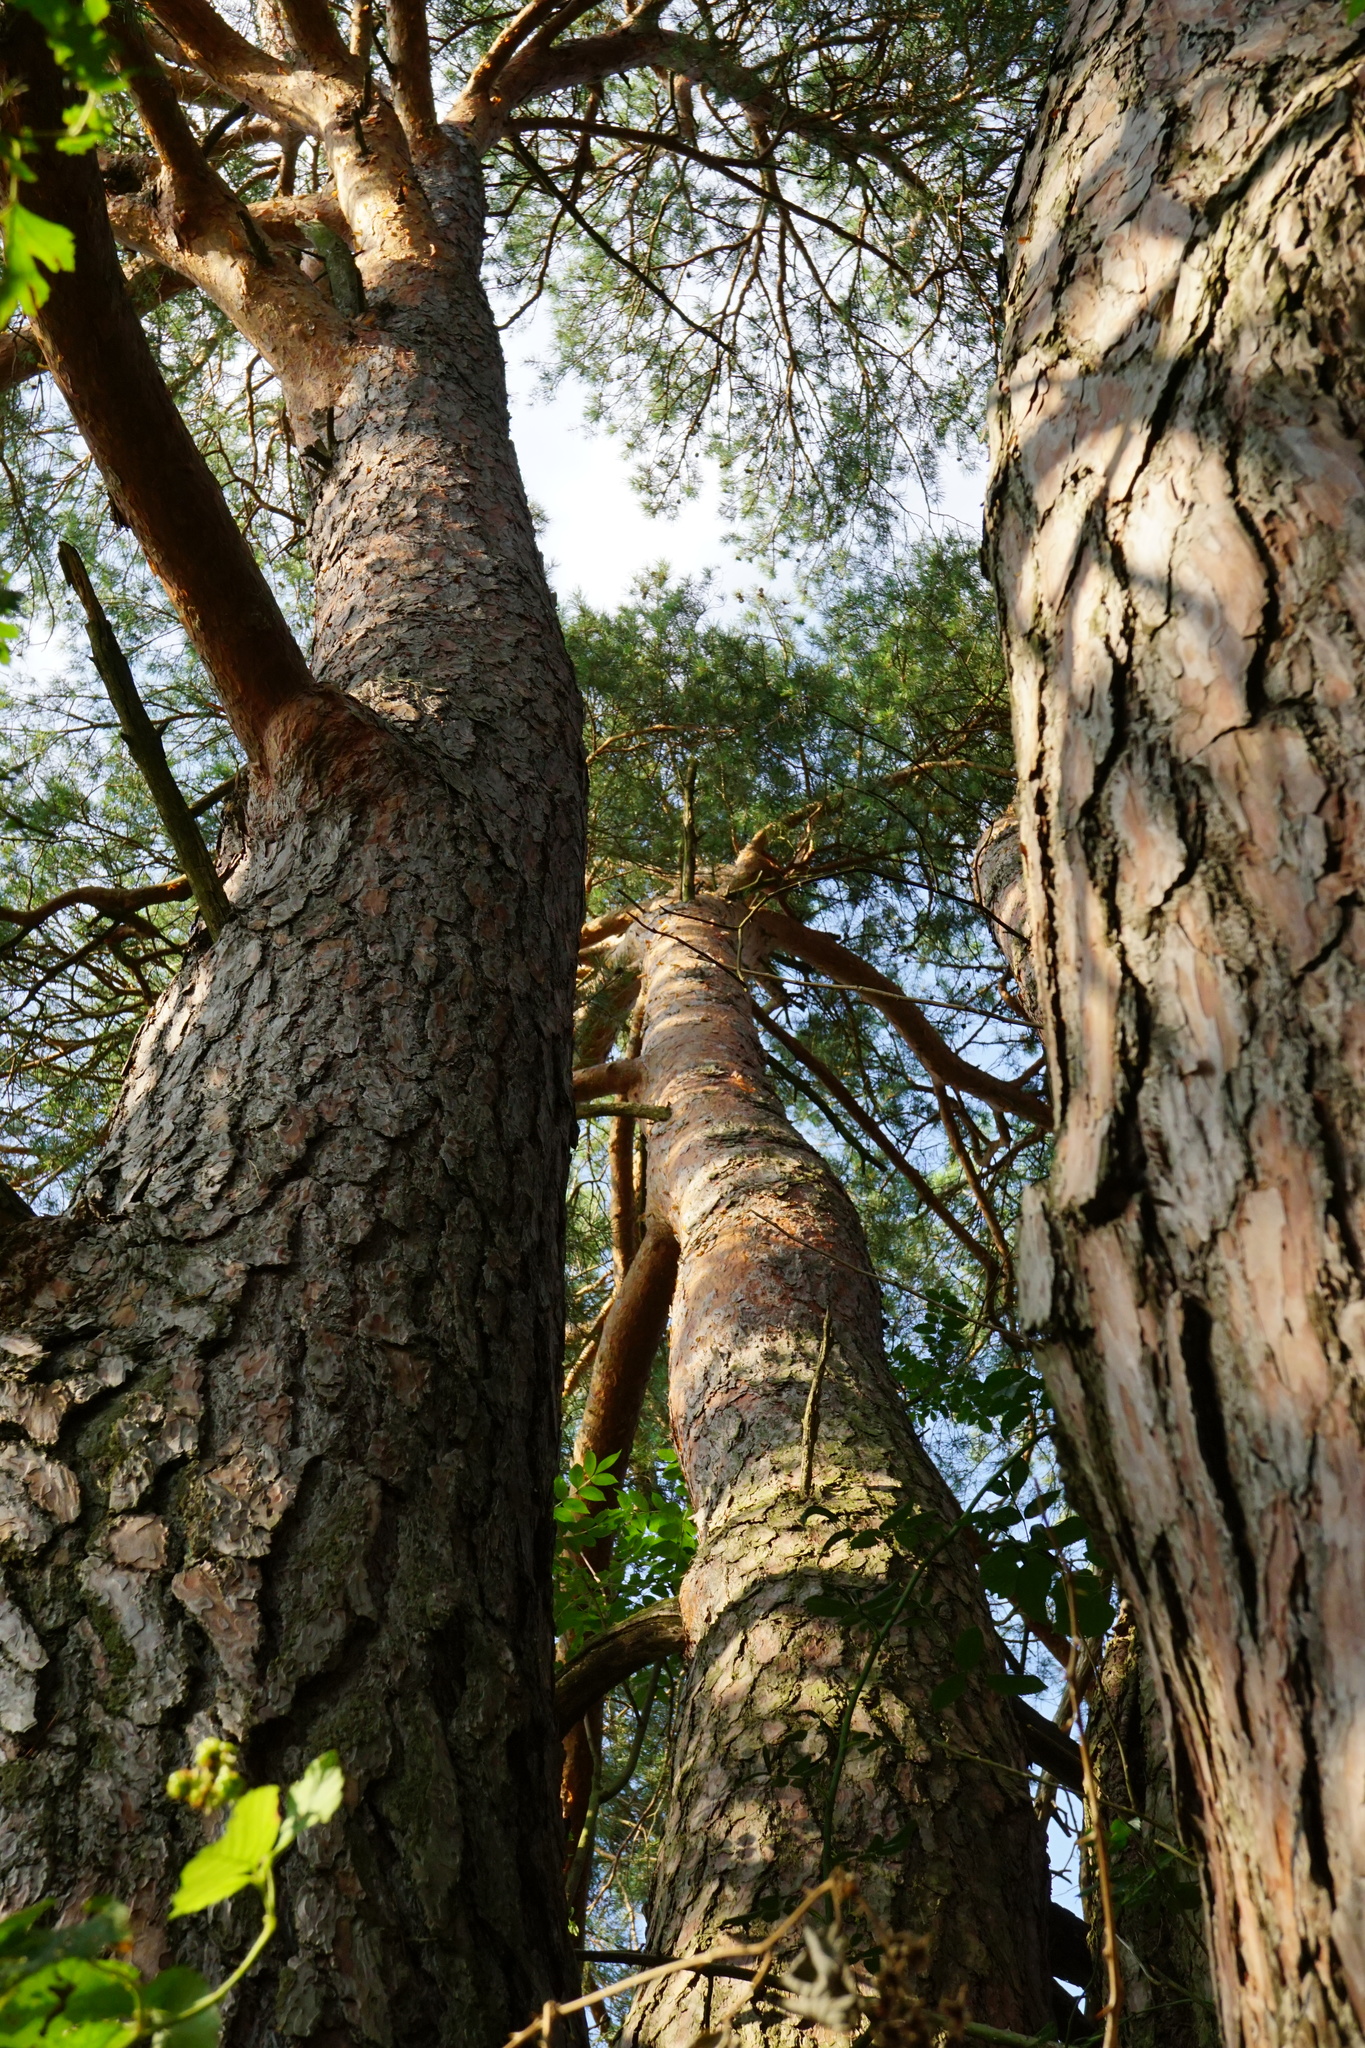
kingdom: Plantae
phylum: Tracheophyta
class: Pinopsida
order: Pinales
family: Pinaceae
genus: Pinus
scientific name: Pinus sylvestris
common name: Scots pine
